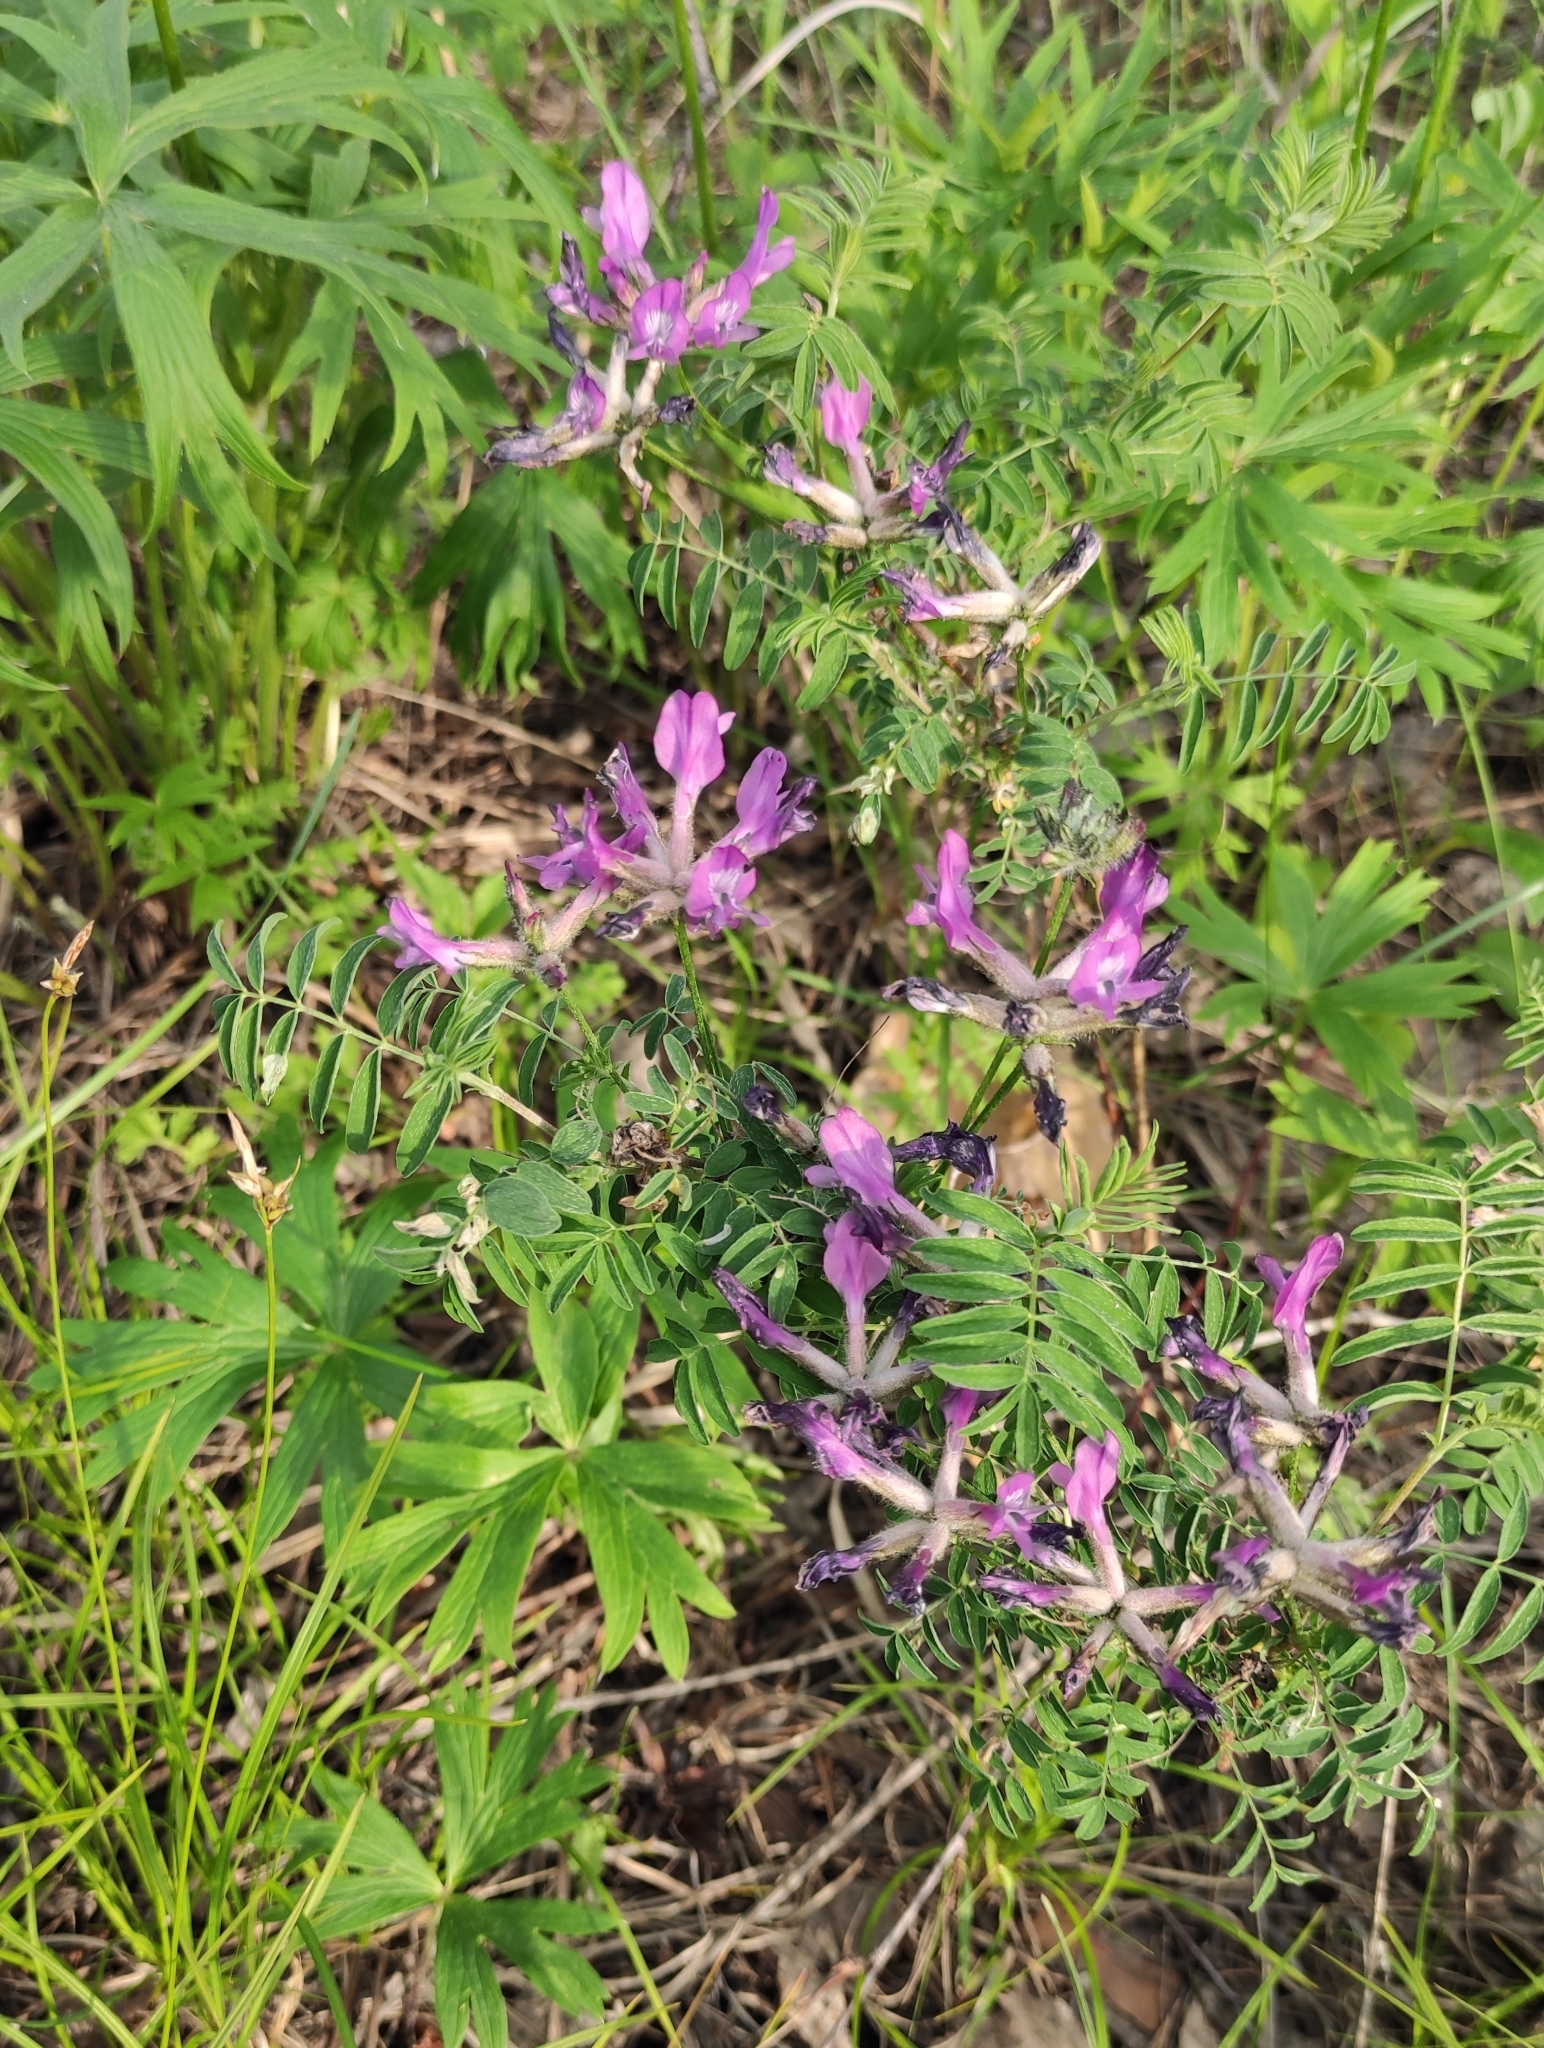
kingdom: Plantae
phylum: Tracheophyta
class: Magnoliopsida
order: Fabales
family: Fabaceae
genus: Astragalus
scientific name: Astragalus syriacus
